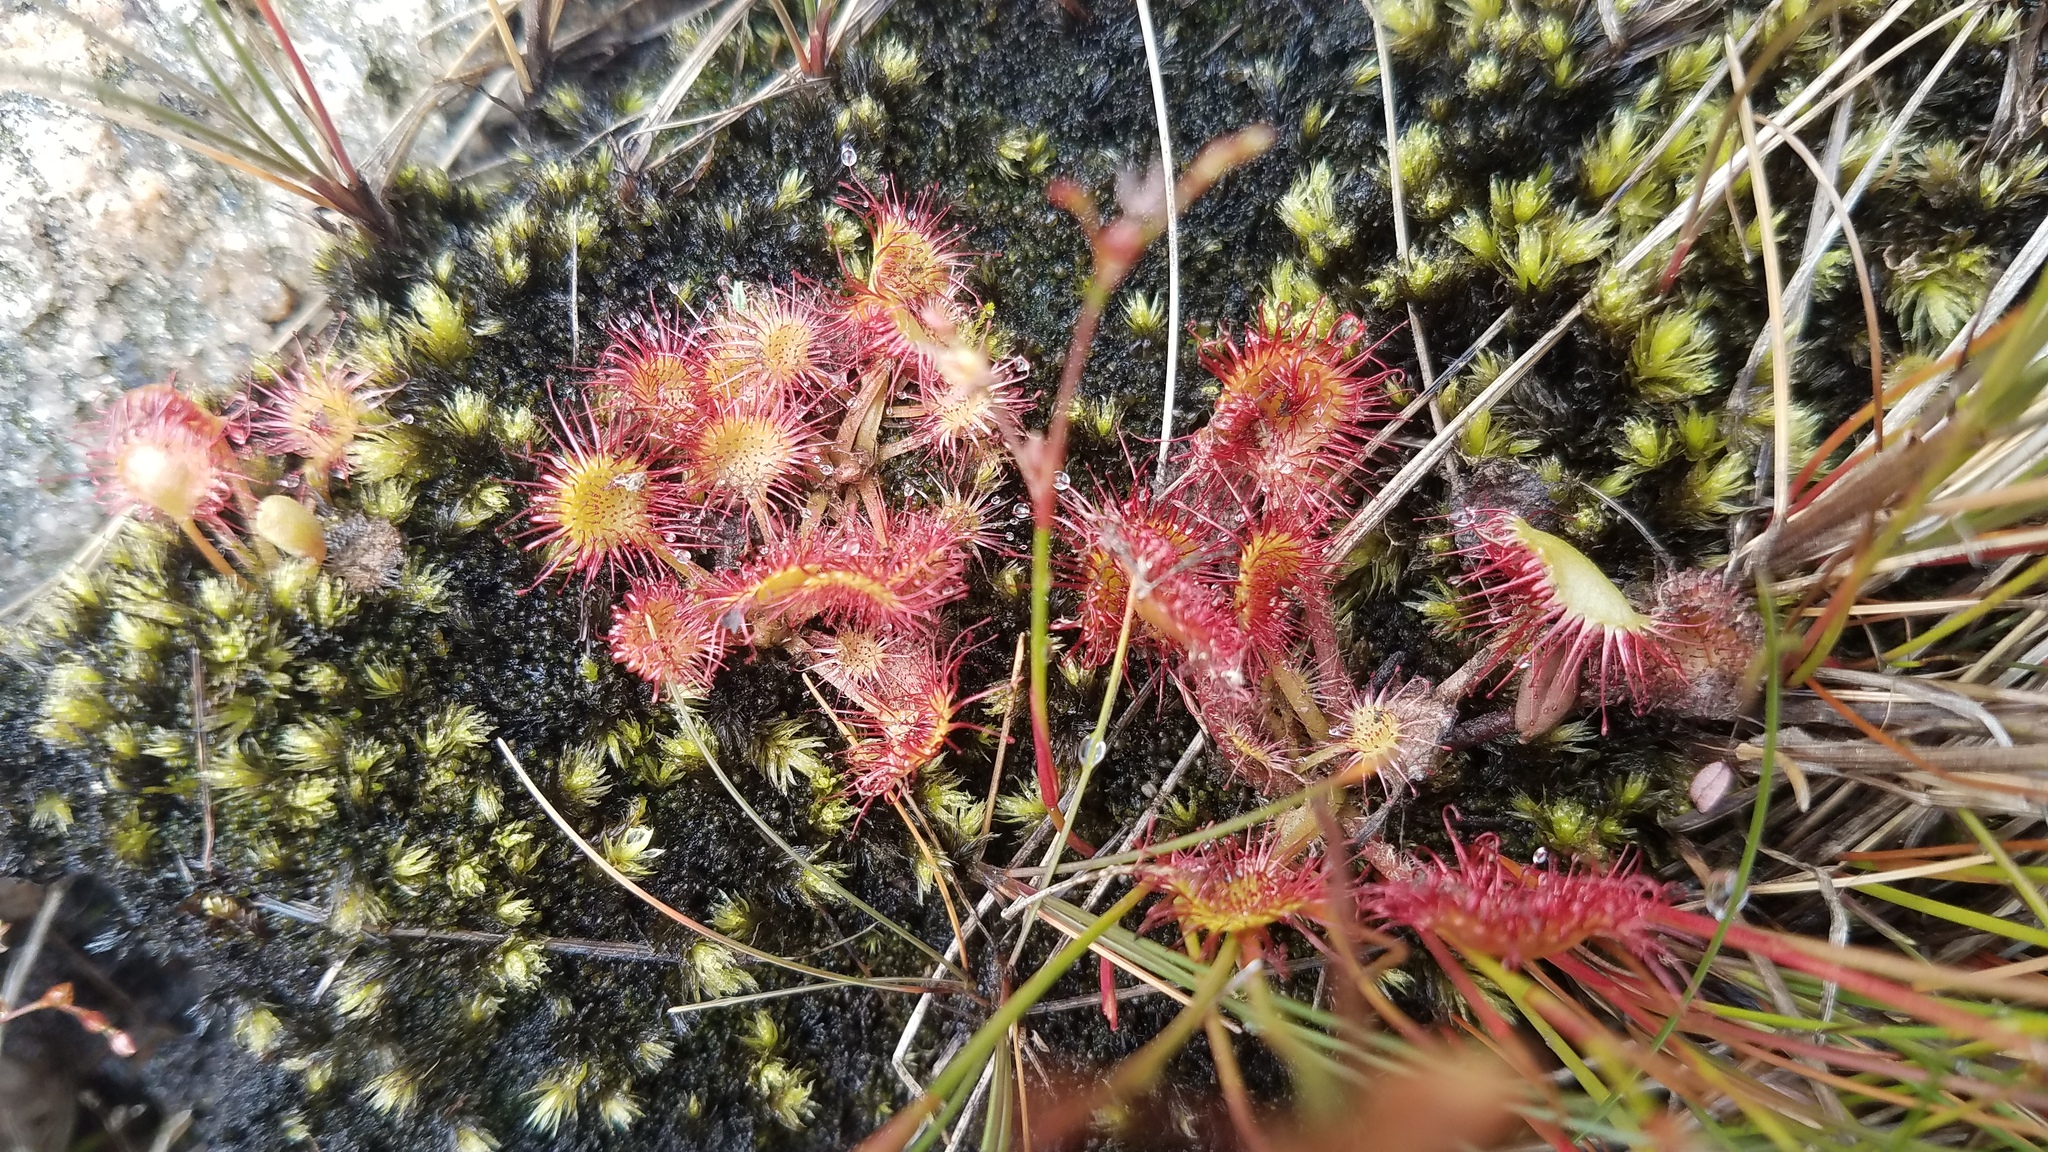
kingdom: Plantae
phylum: Tracheophyta
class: Magnoliopsida
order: Caryophyllales
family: Droseraceae
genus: Drosera
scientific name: Drosera rotundifolia
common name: Round-leaved sundew
